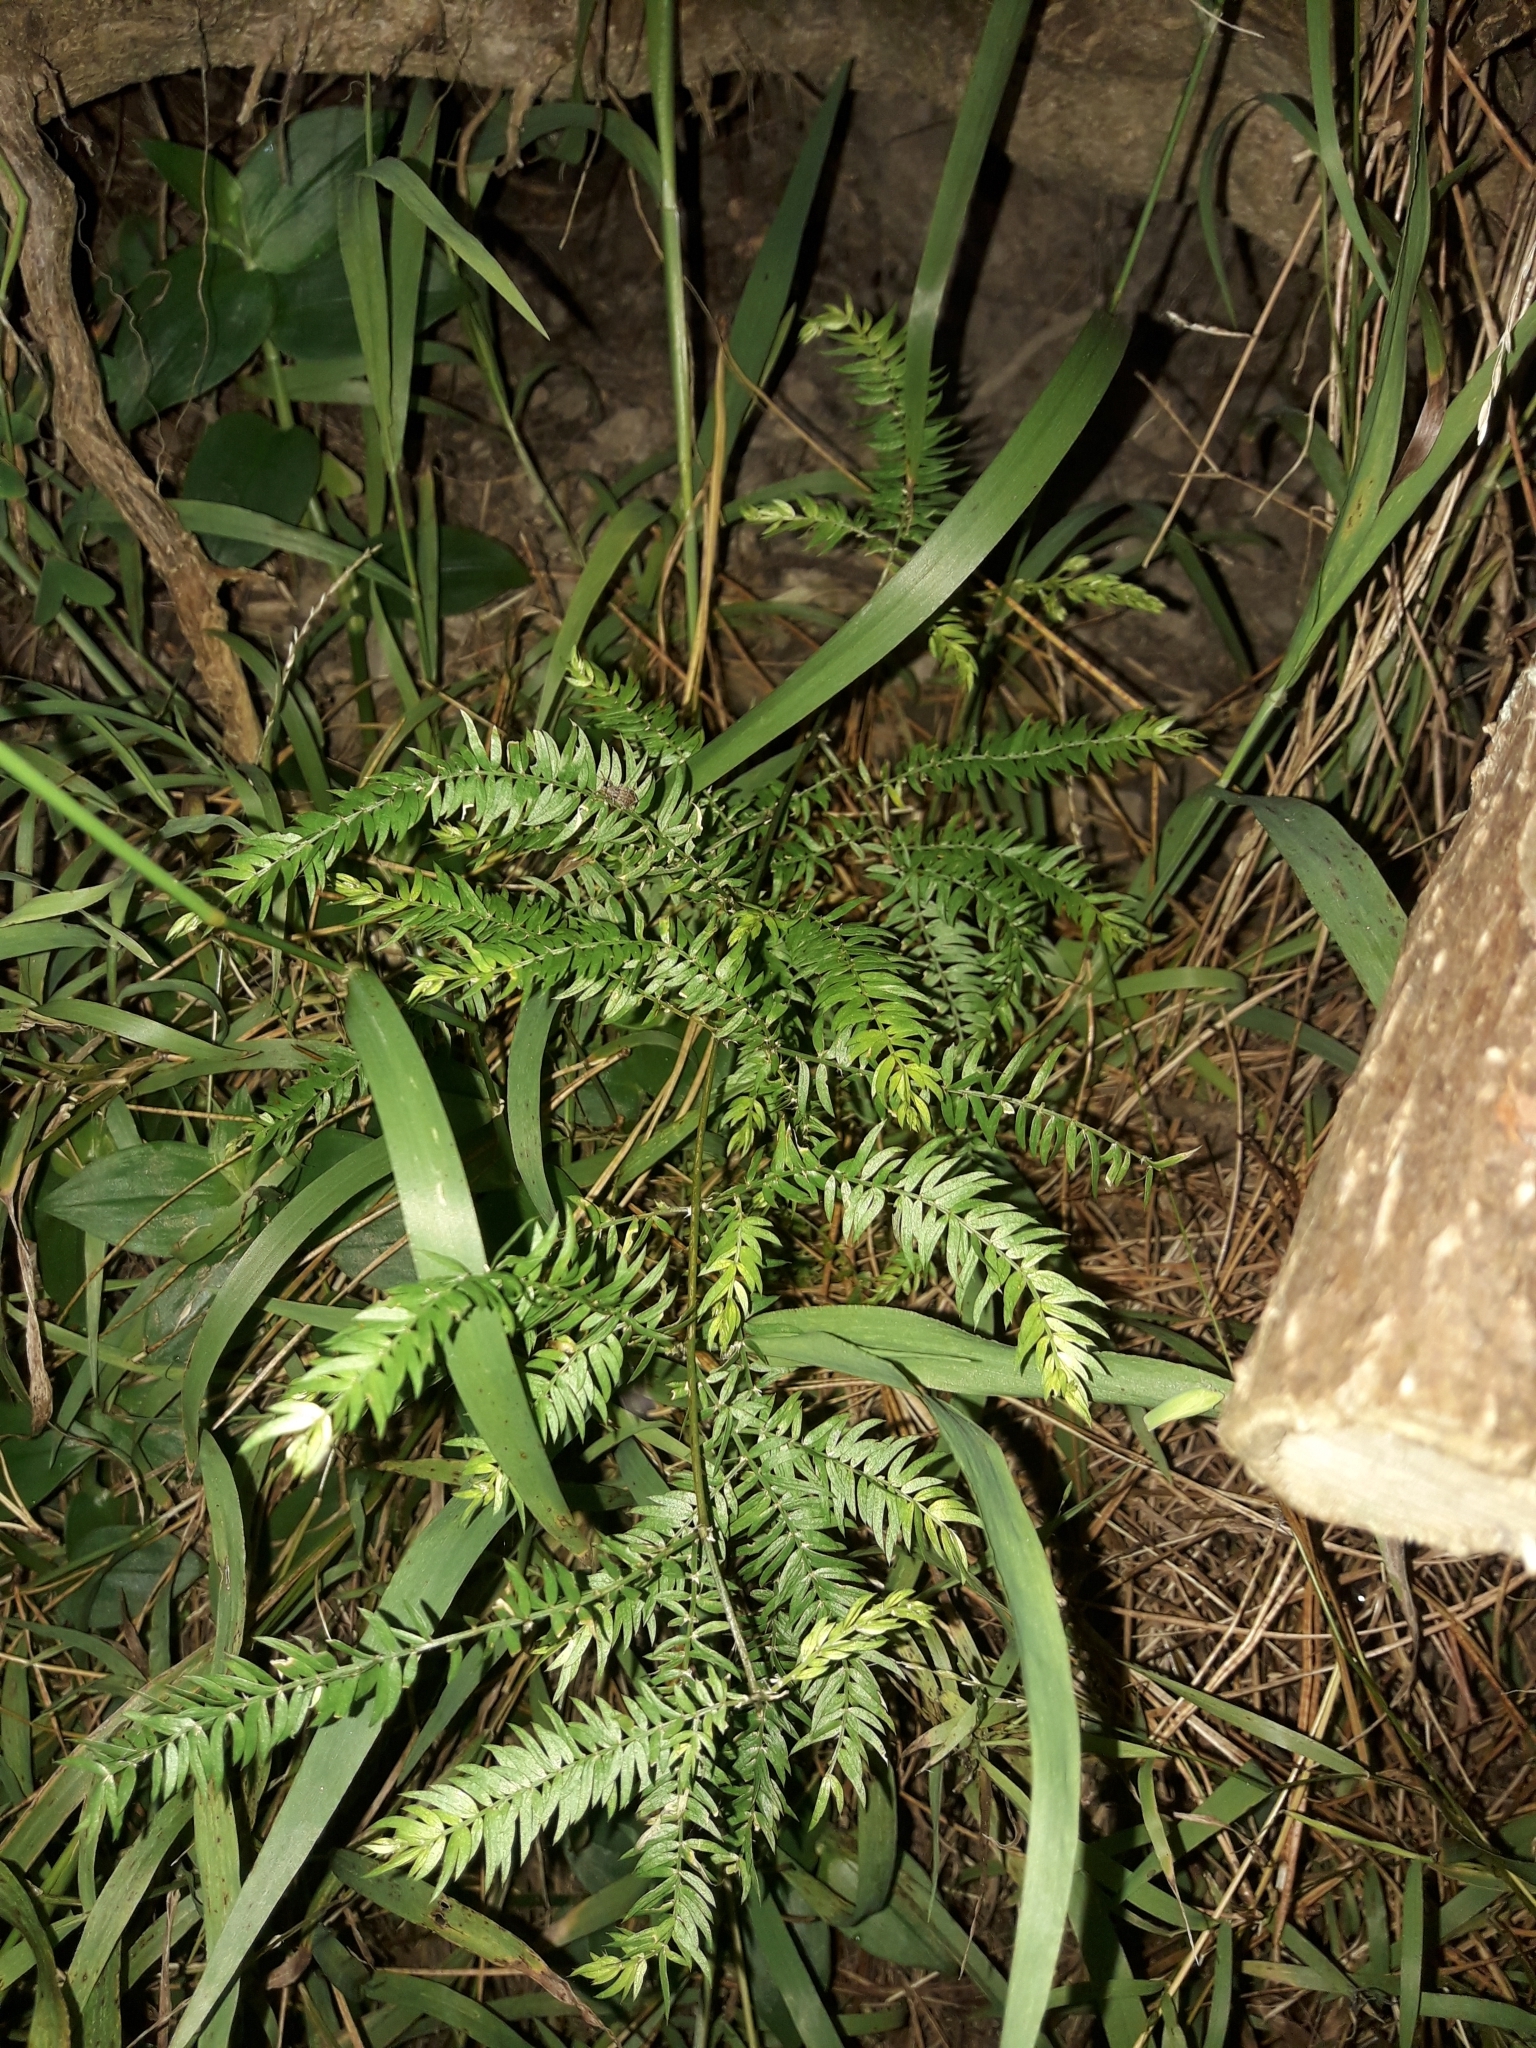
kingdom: Plantae
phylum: Tracheophyta
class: Liliopsida
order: Asparagales
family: Asparagaceae
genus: Asparagus
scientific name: Asparagus scandens
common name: Asparagus-fern
